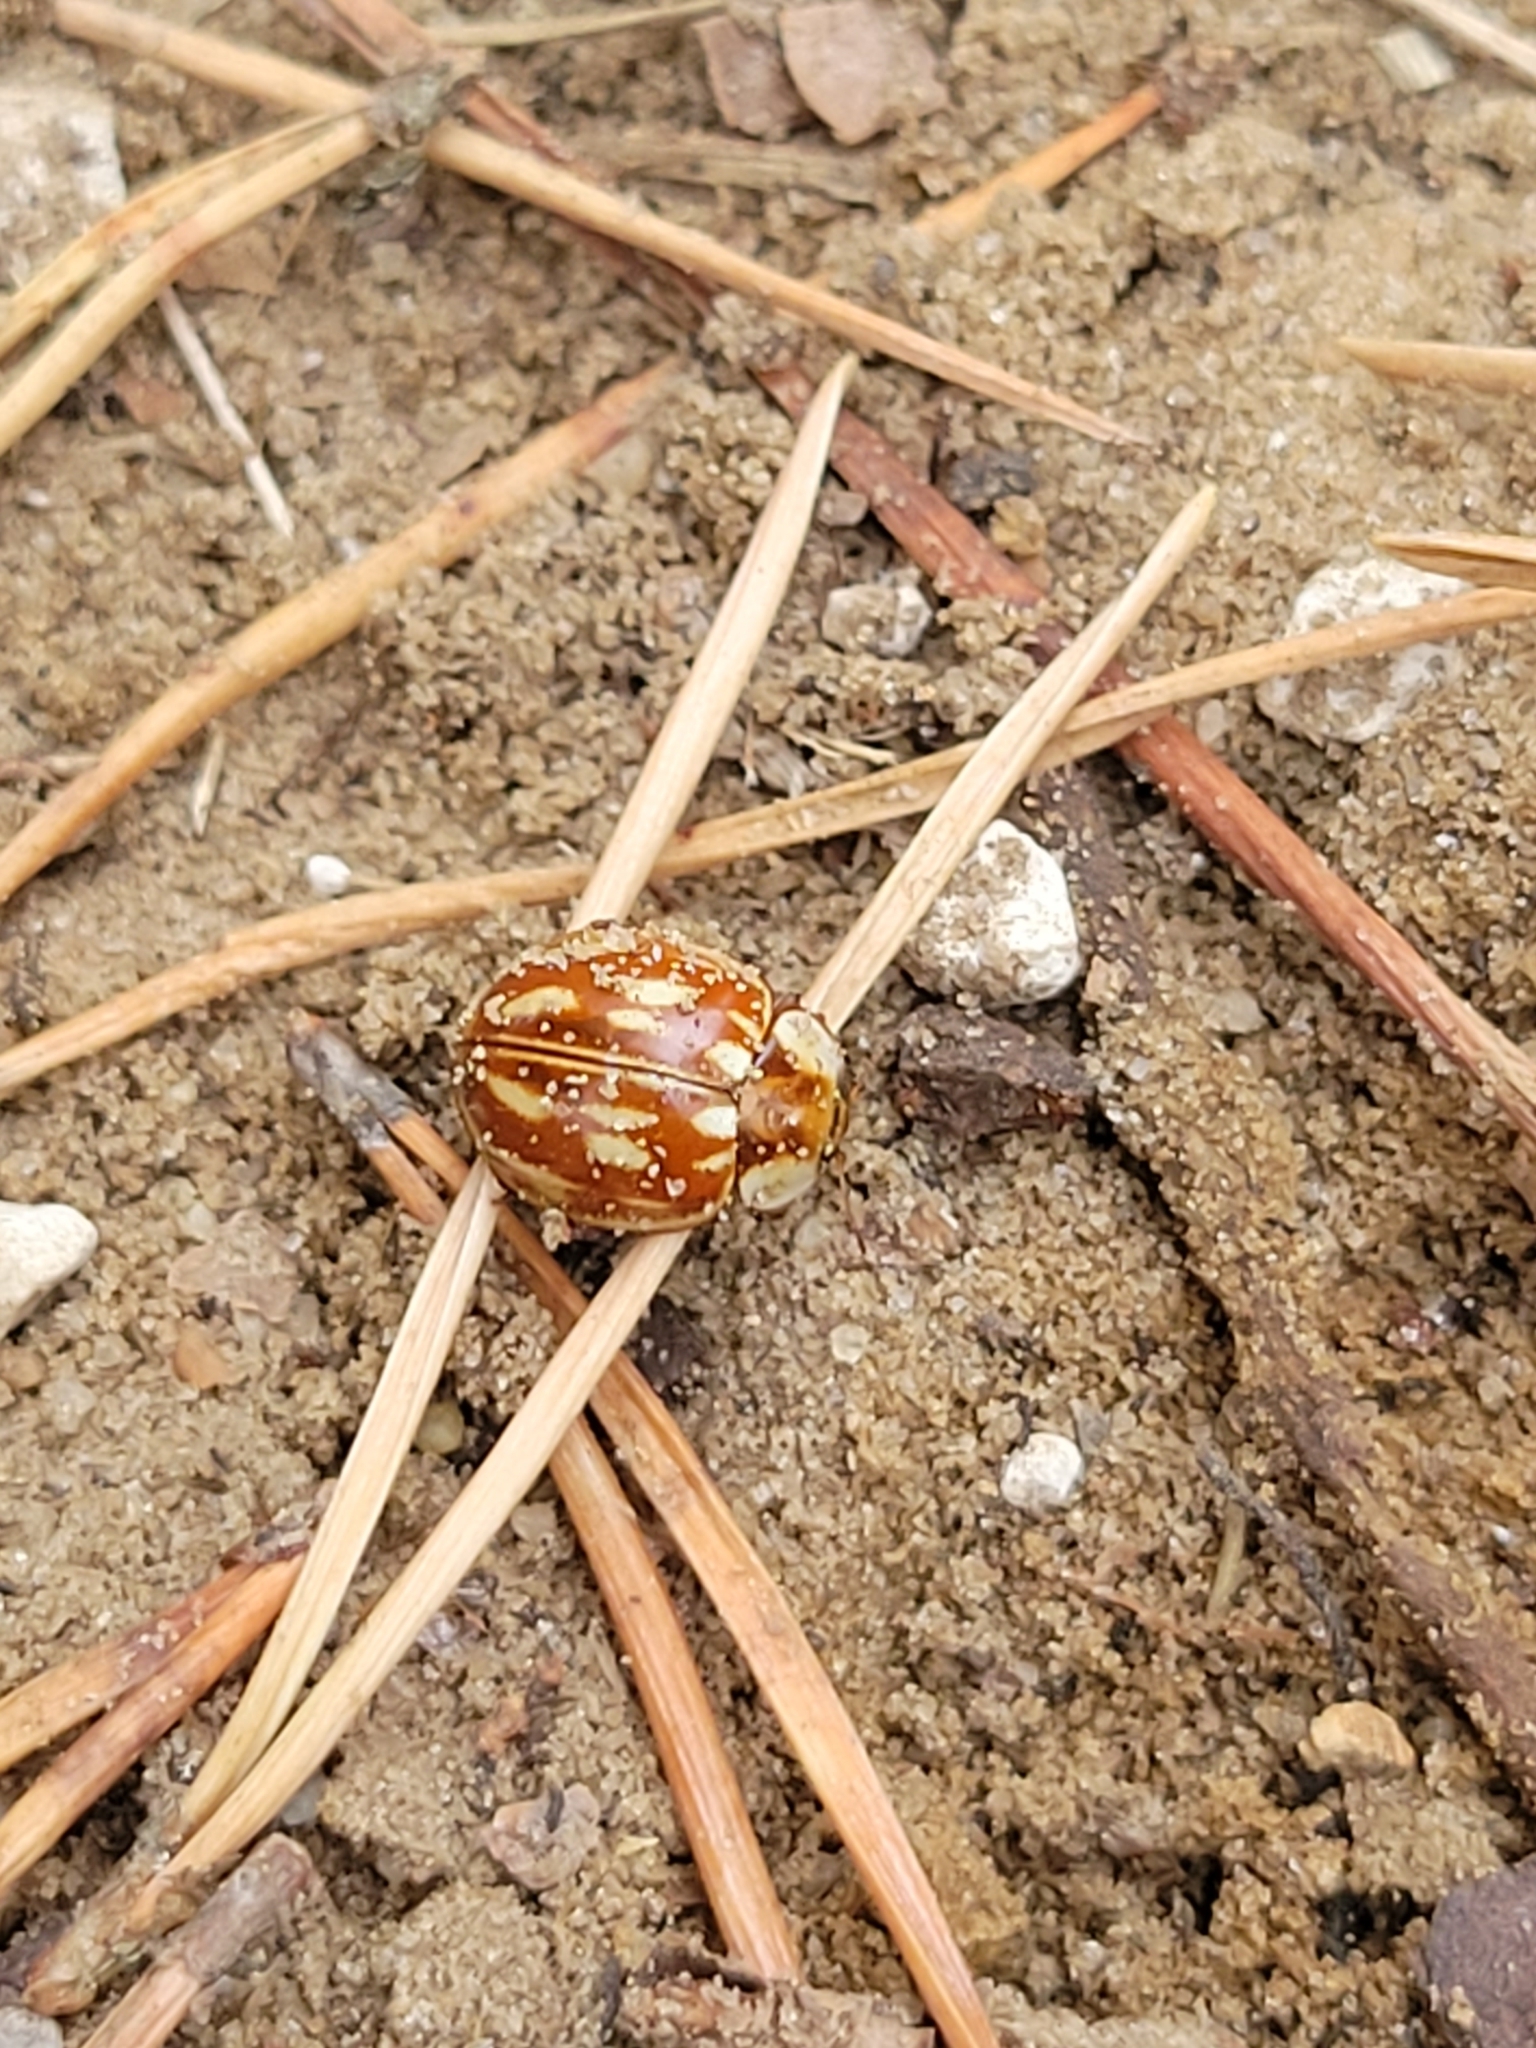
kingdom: Animalia
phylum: Arthropoda
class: Insecta
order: Coleoptera
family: Coccinellidae
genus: Myzia
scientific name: Myzia oblongoguttata
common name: Striped ladybird
